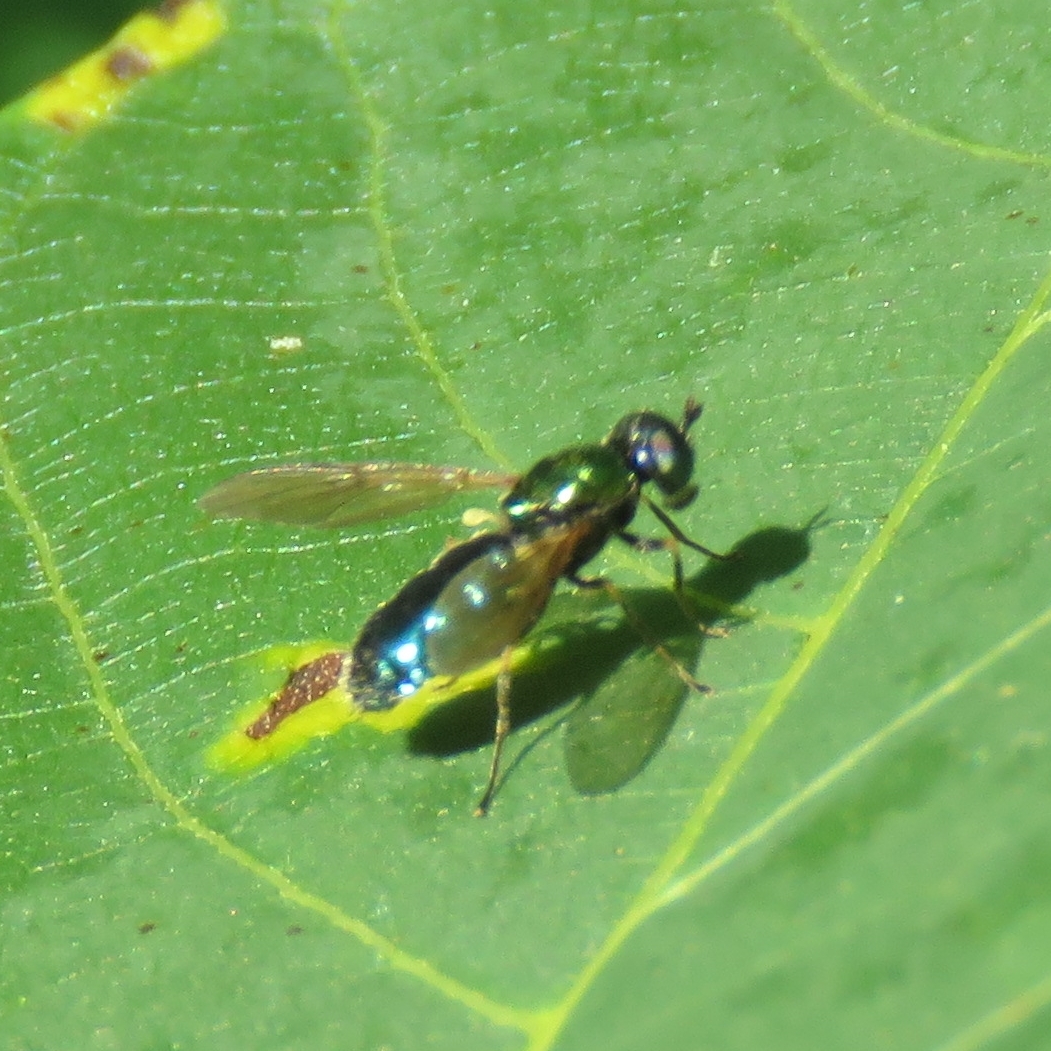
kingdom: Animalia
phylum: Arthropoda
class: Insecta
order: Diptera
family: Stratiomyidae
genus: Chloromyia
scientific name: Chloromyia formosa
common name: Soldier fly
